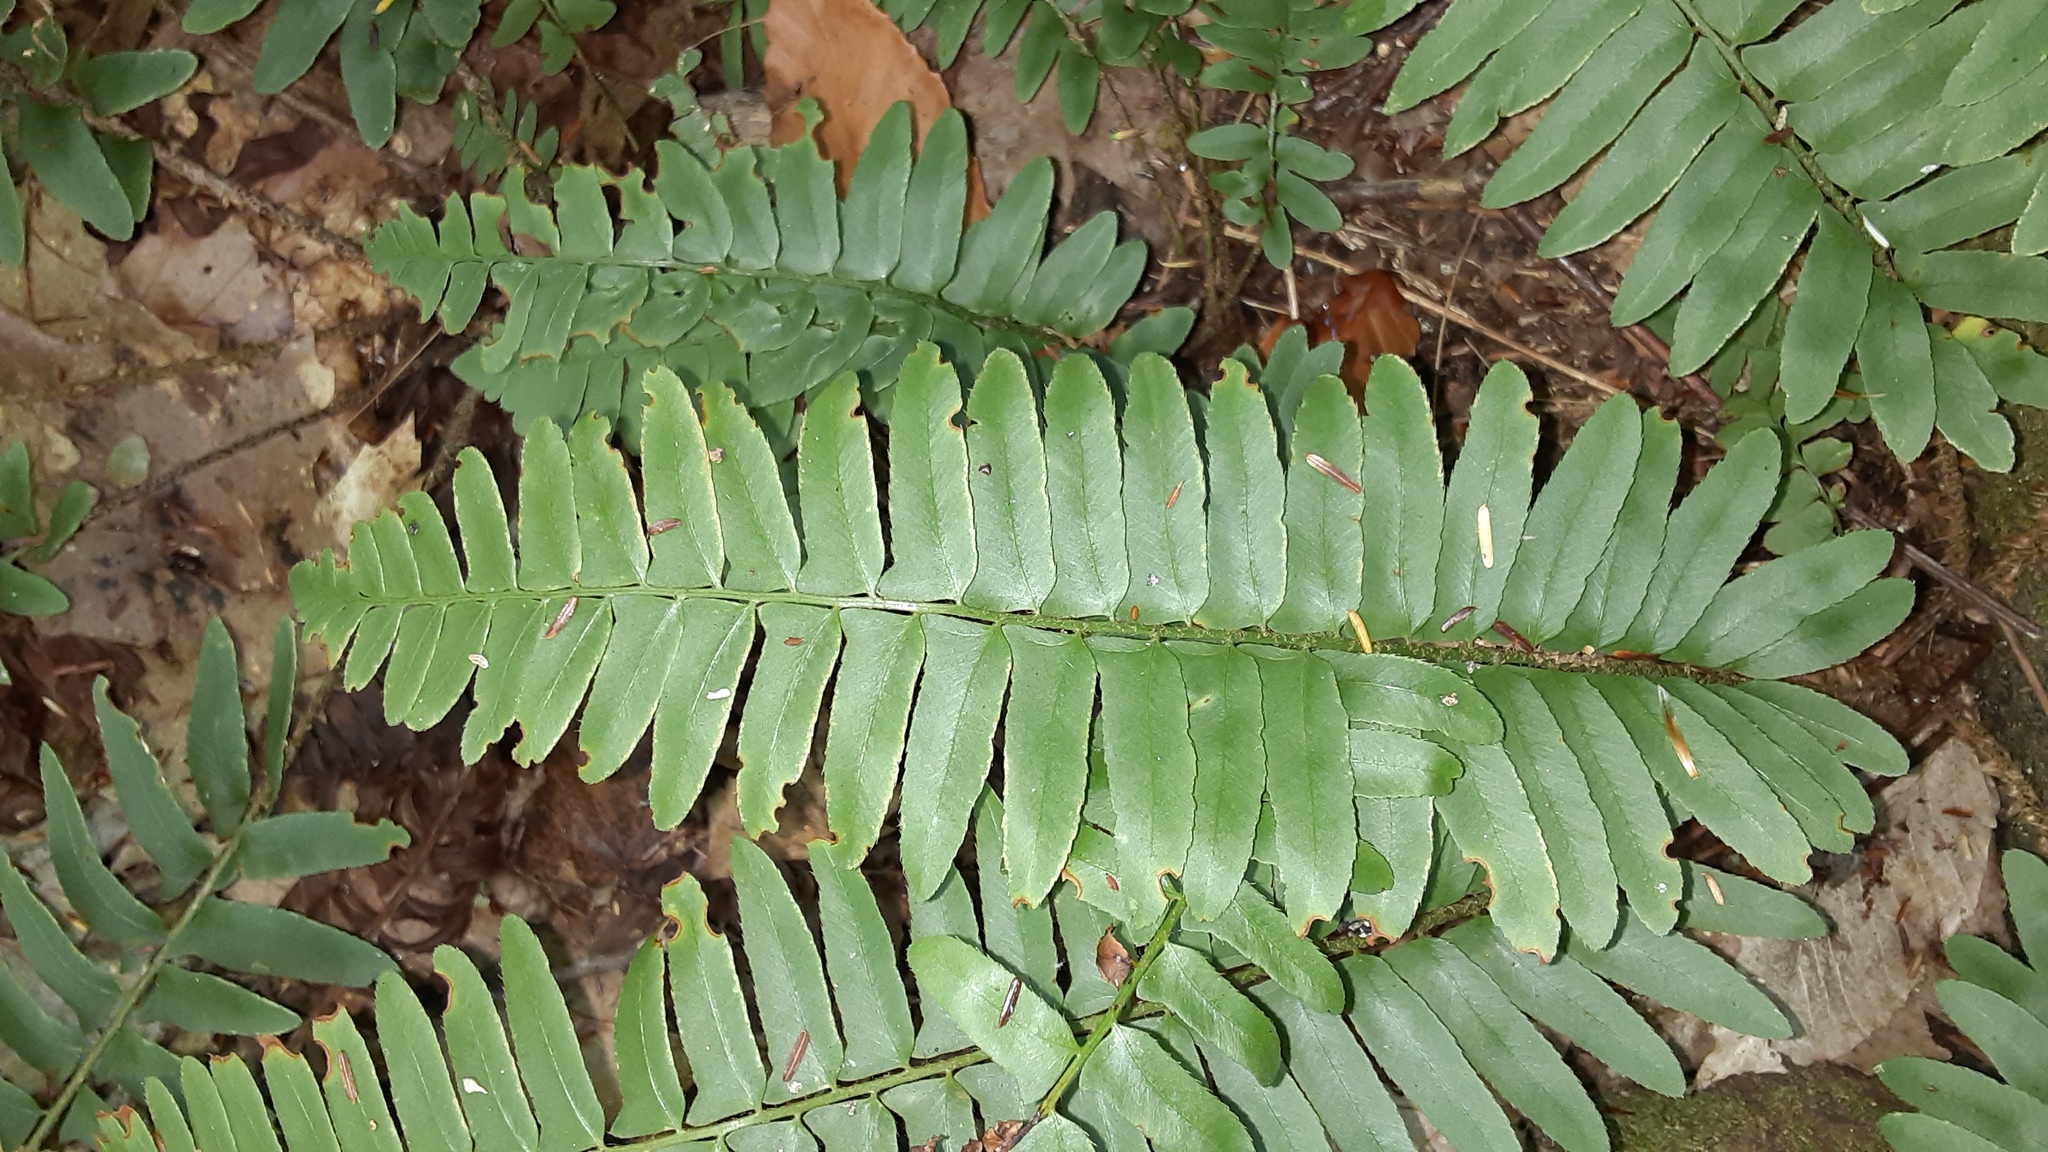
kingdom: Plantae
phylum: Tracheophyta
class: Polypodiopsida
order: Polypodiales
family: Dryopteridaceae
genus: Polystichum
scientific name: Polystichum acrostichoides
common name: Christmas fern
